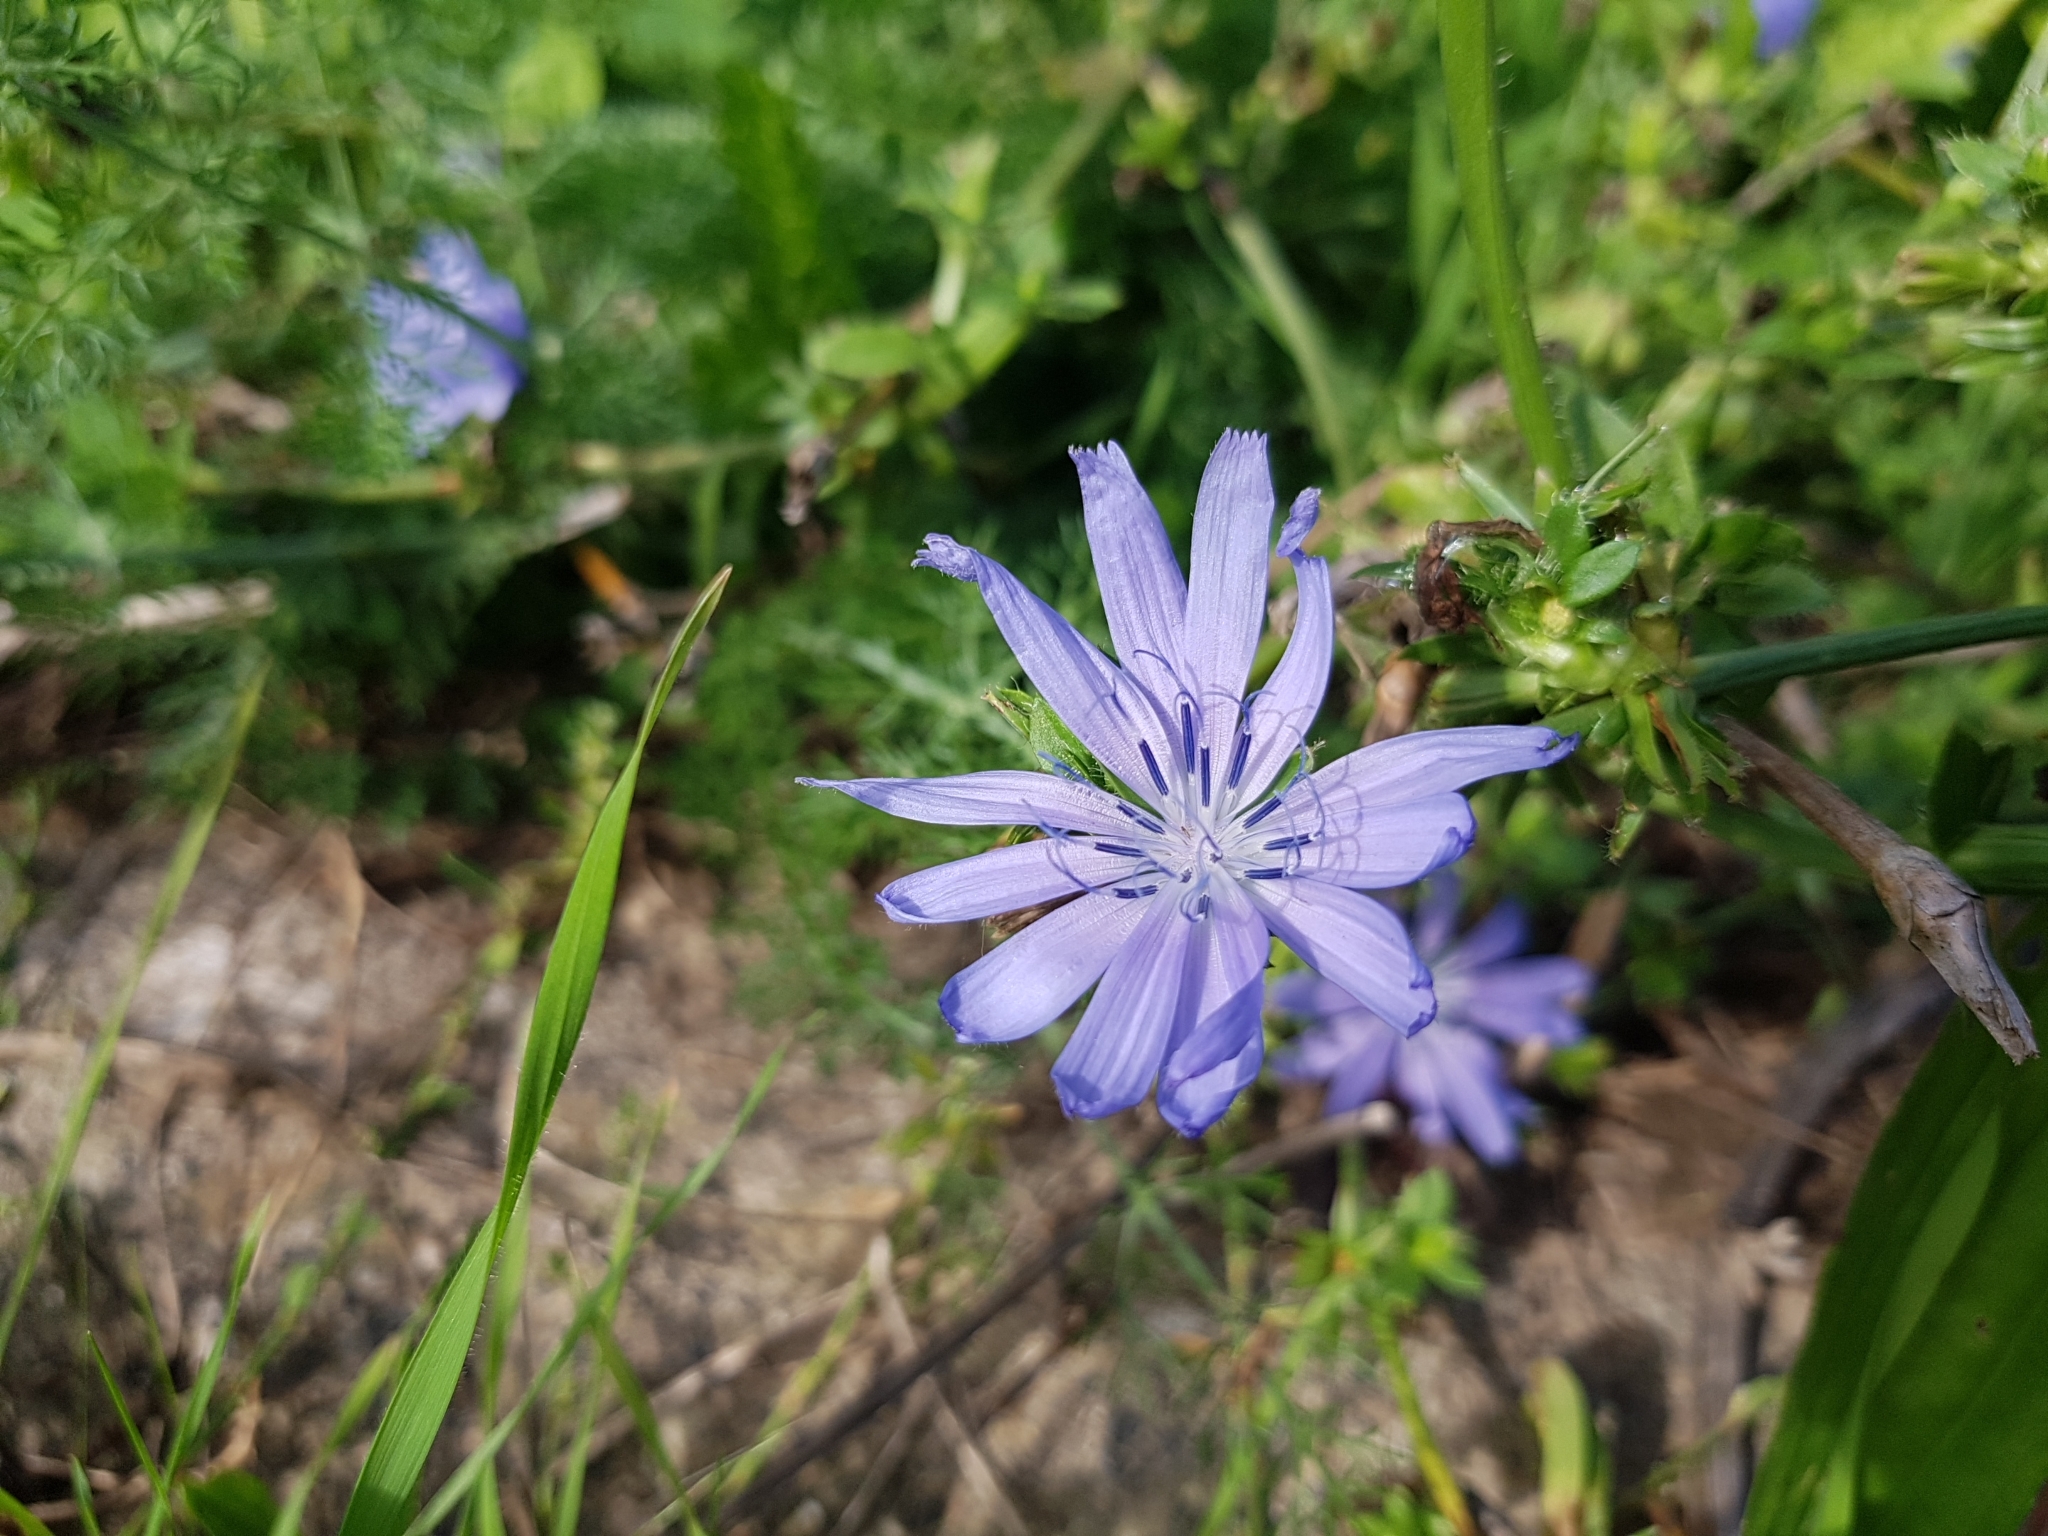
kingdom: Plantae
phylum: Tracheophyta
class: Magnoliopsida
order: Asterales
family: Asteraceae
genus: Cichorium
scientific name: Cichorium intybus
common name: Chicory
